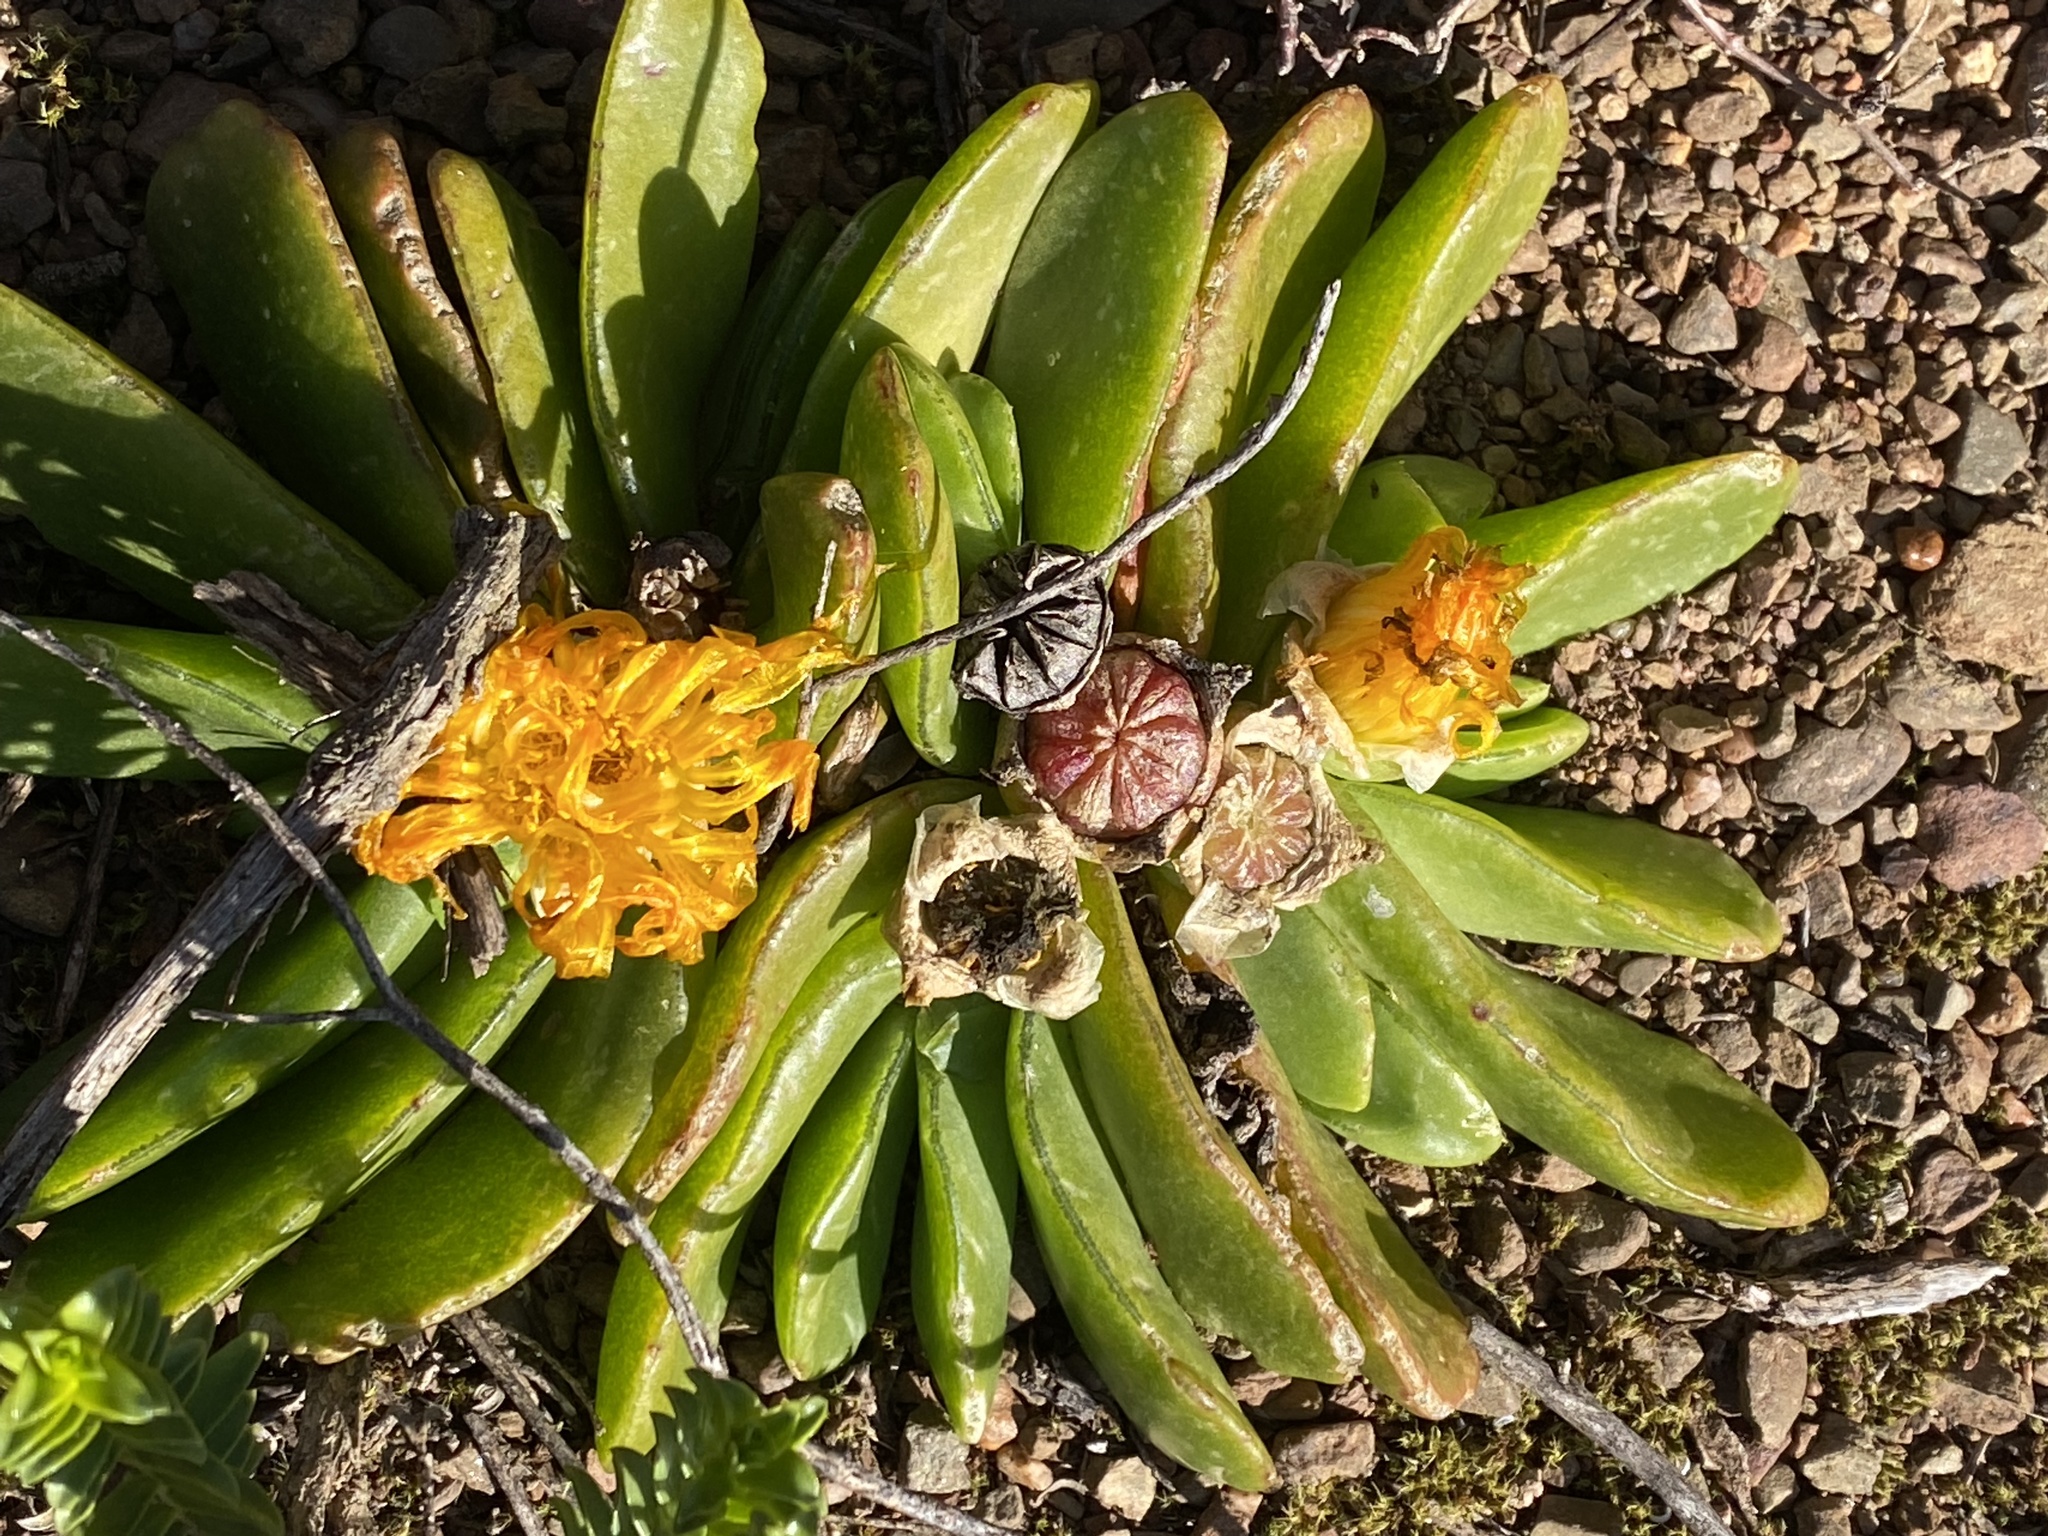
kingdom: Plantae
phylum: Tracheophyta
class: Magnoliopsida
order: Caryophyllales
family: Aizoaceae
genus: Glottiphyllum
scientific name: Glottiphyllum longum
